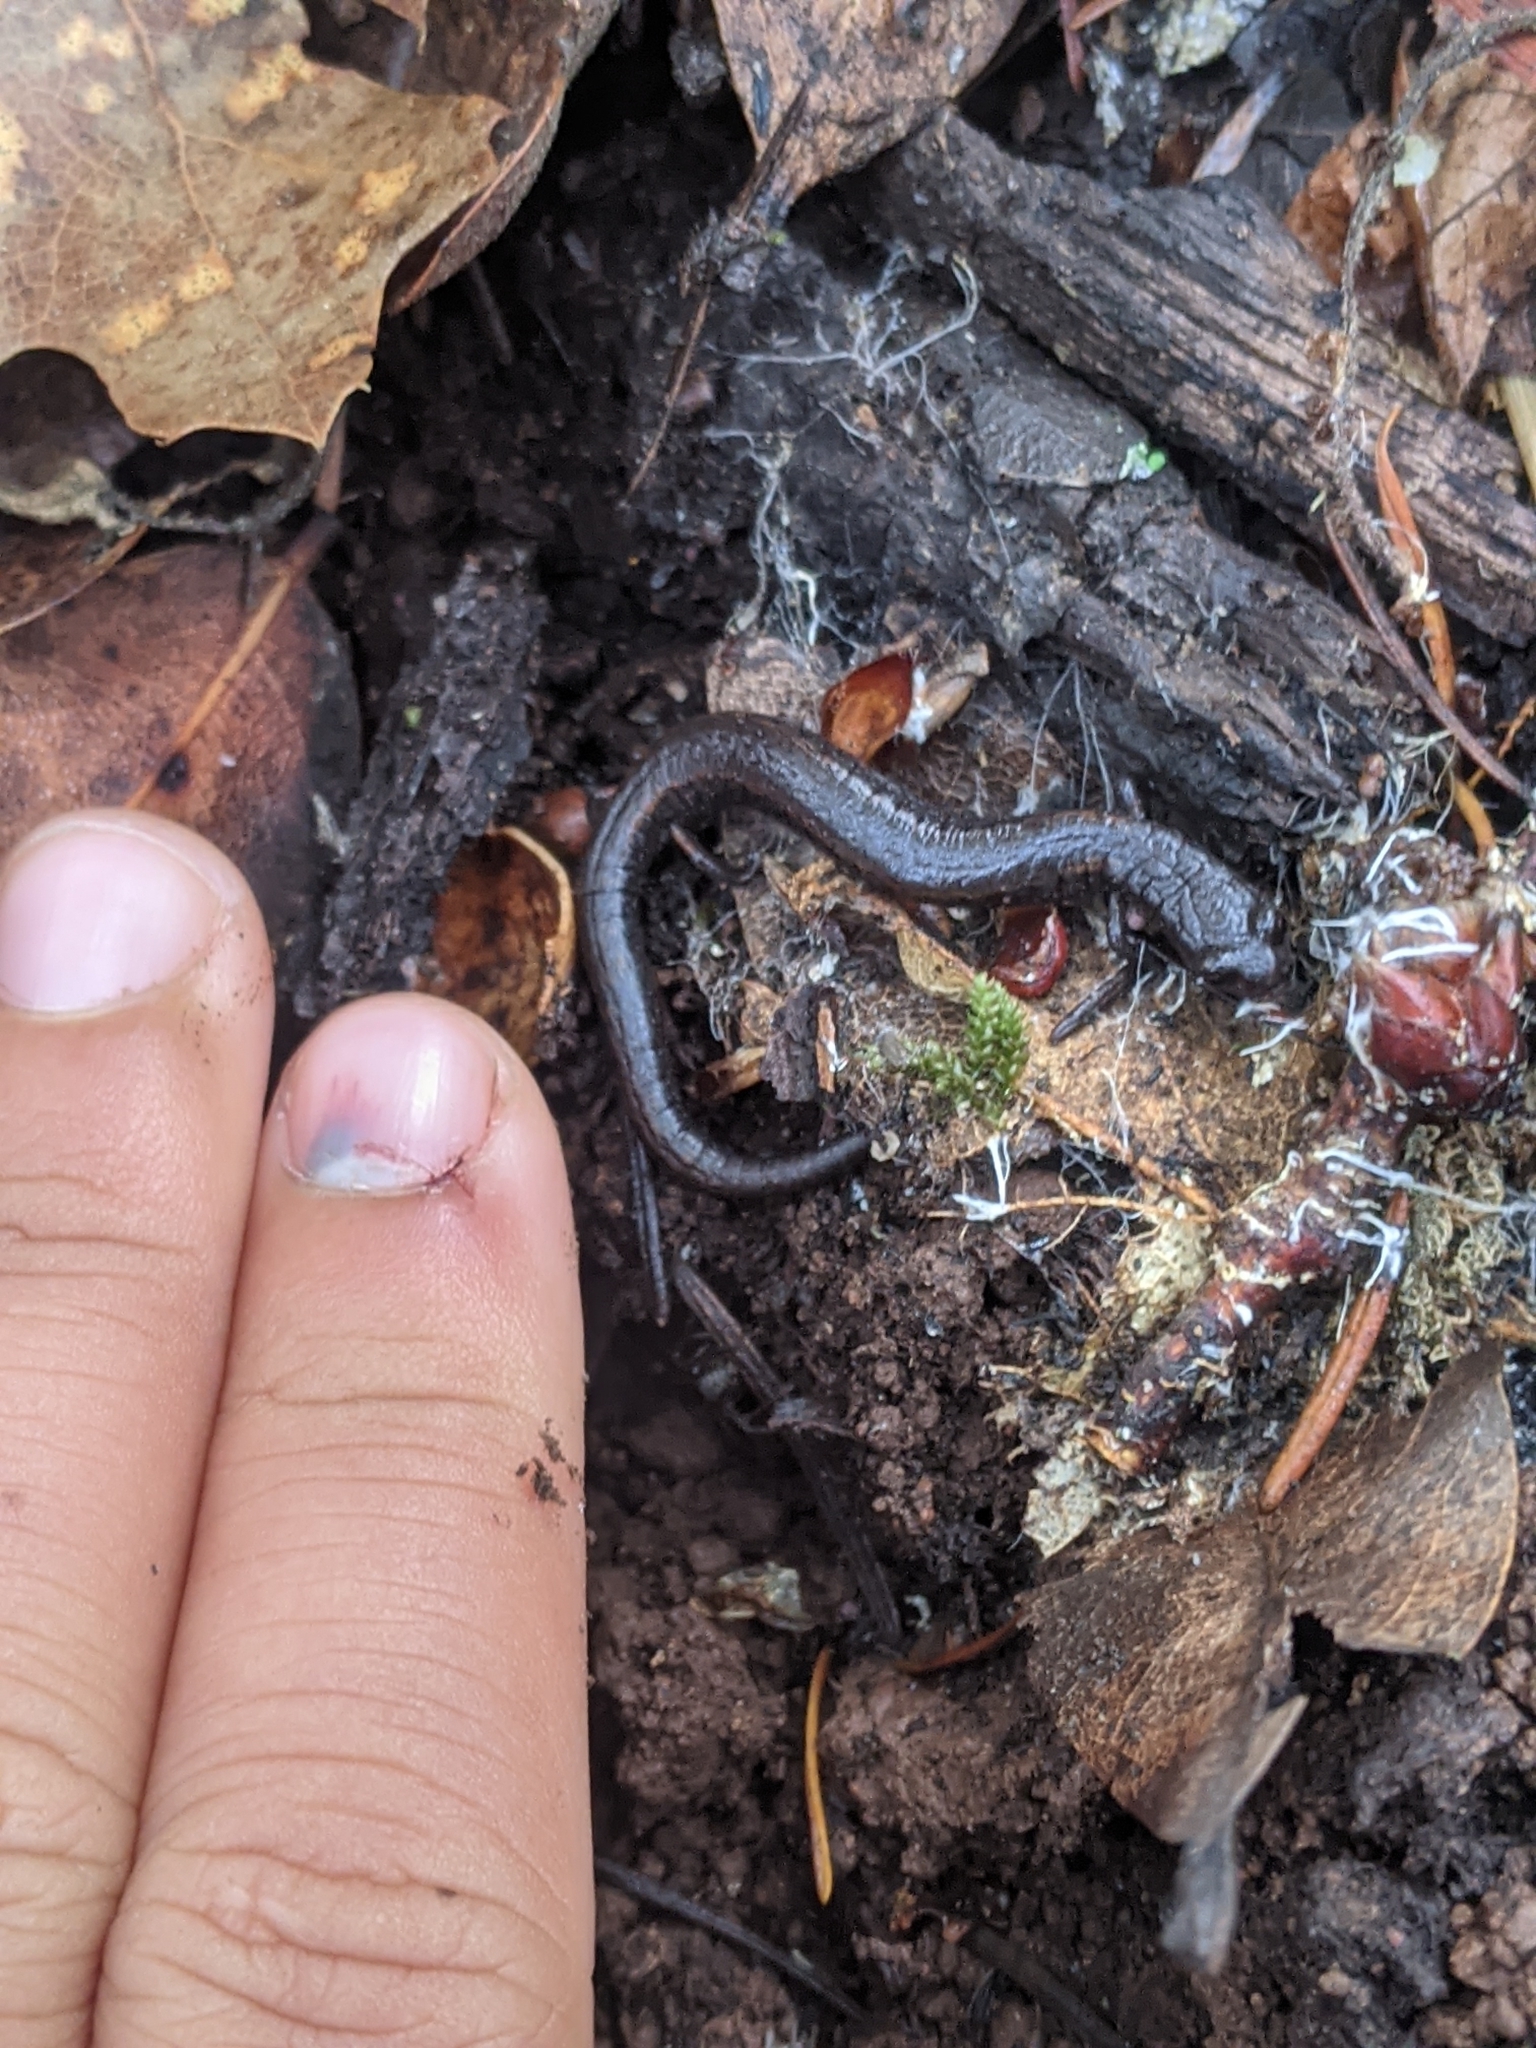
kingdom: Animalia
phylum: Chordata
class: Amphibia
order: Caudata
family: Plethodontidae
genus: Batrachoseps
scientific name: Batrachoseps attenuatus
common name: California slender salamander
